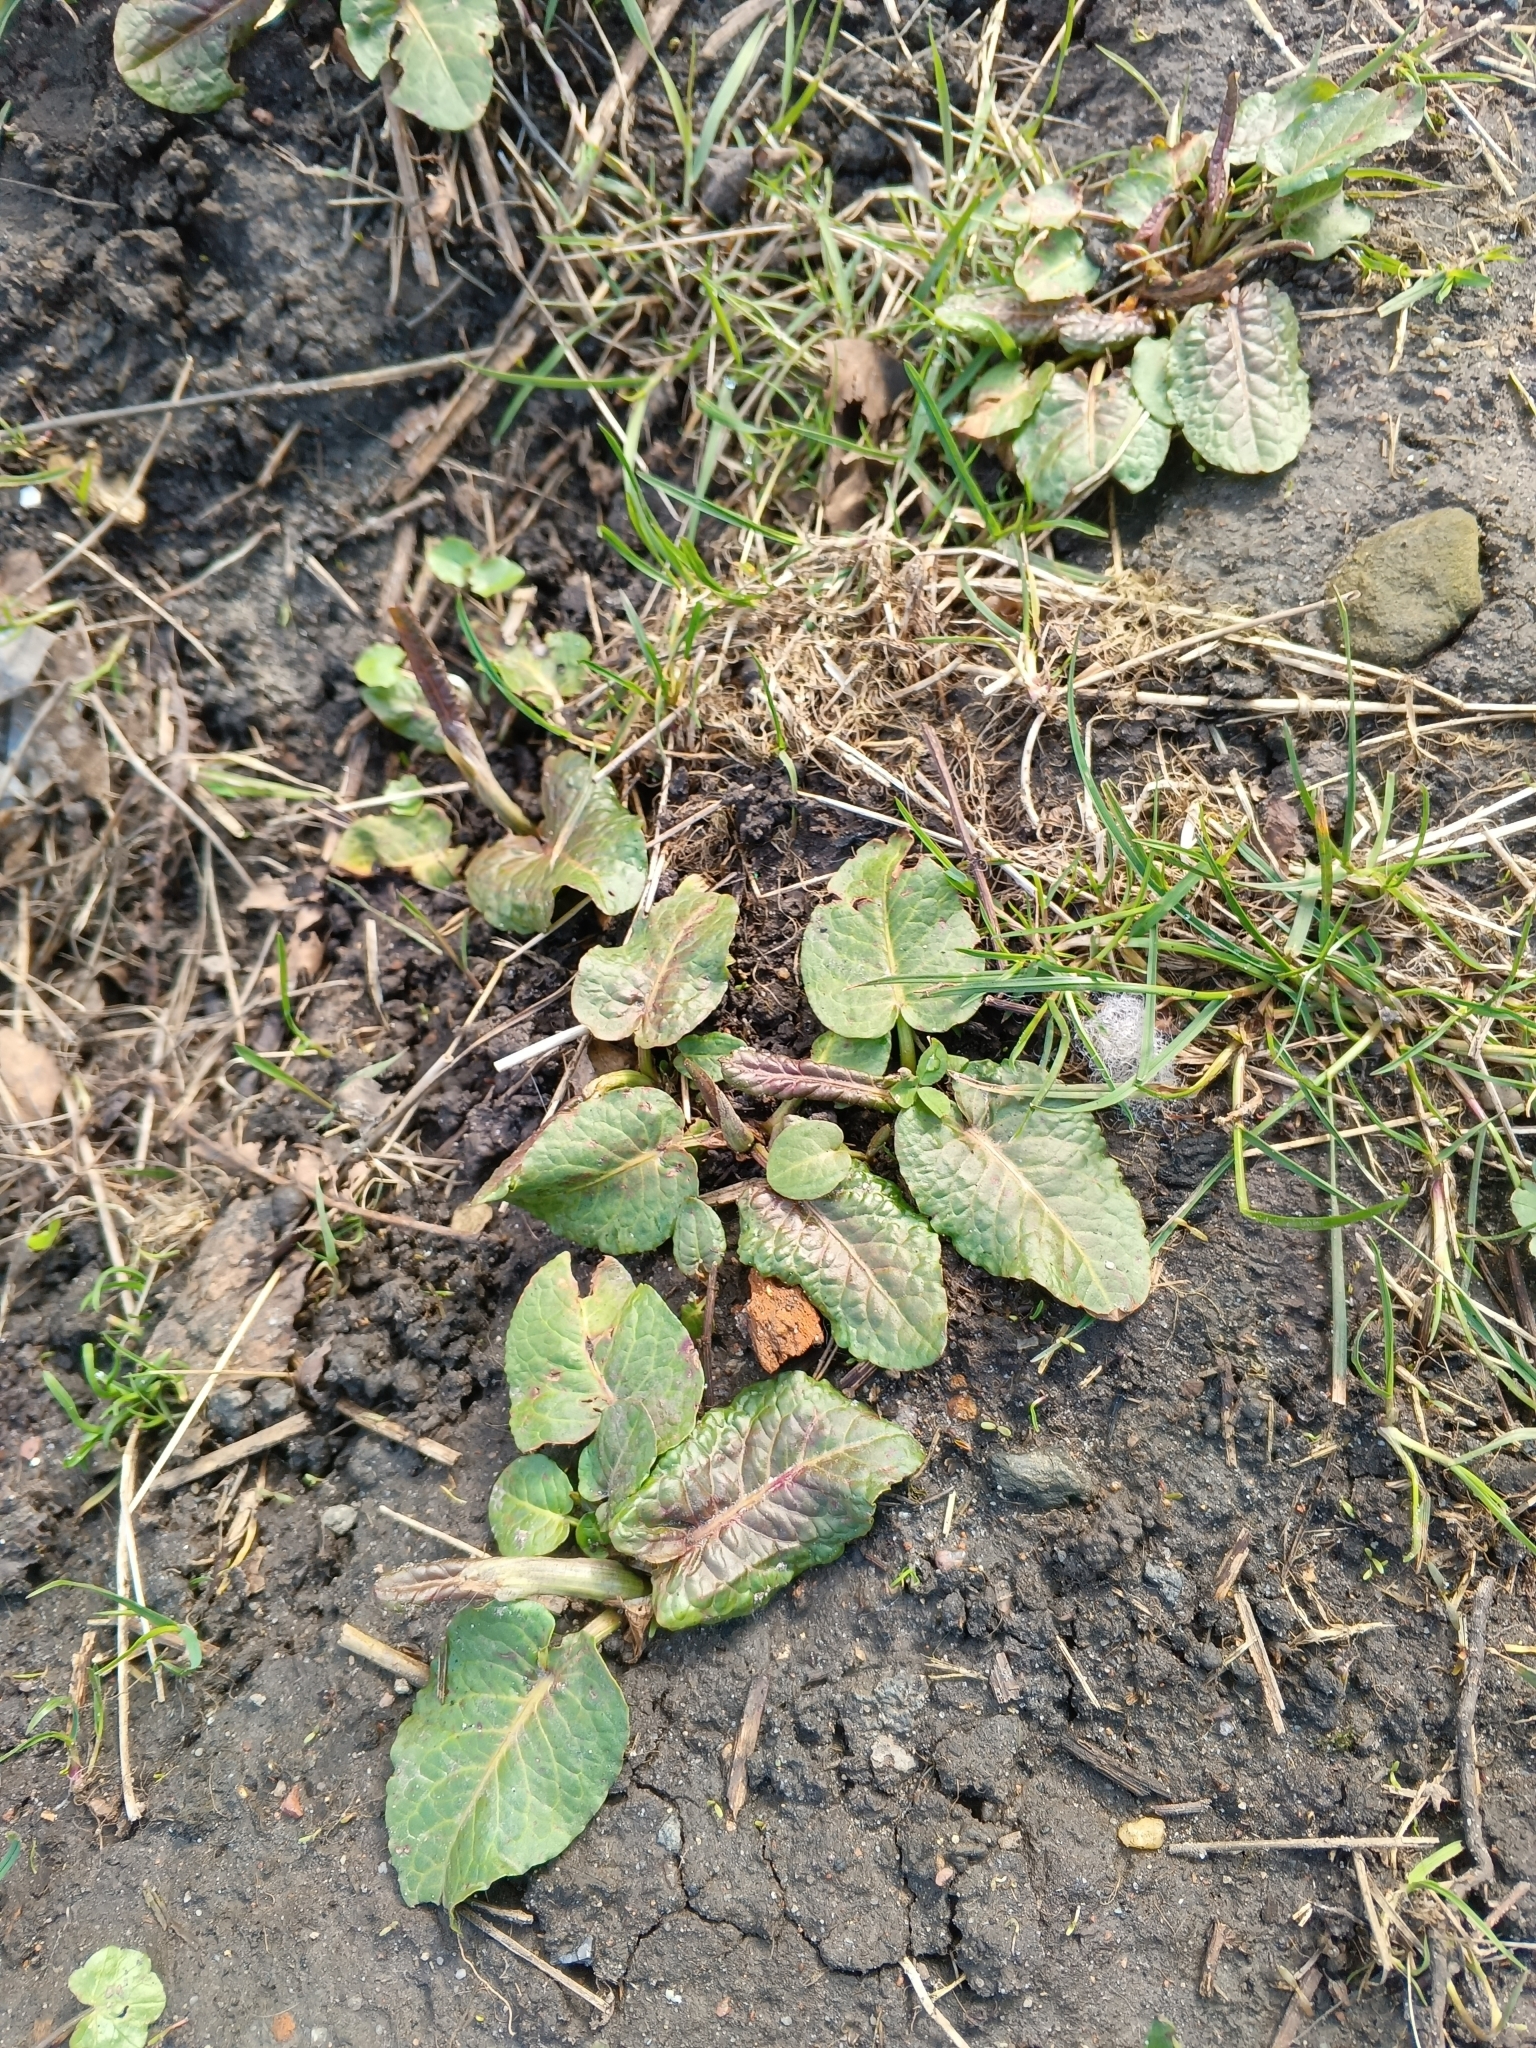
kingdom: Plantae
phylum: Tracheophyta
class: Magnoliopsida
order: Caryophyllales
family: Polygonaceae
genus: Rumex
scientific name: Rumex obtusifolius
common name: Bitter dock
